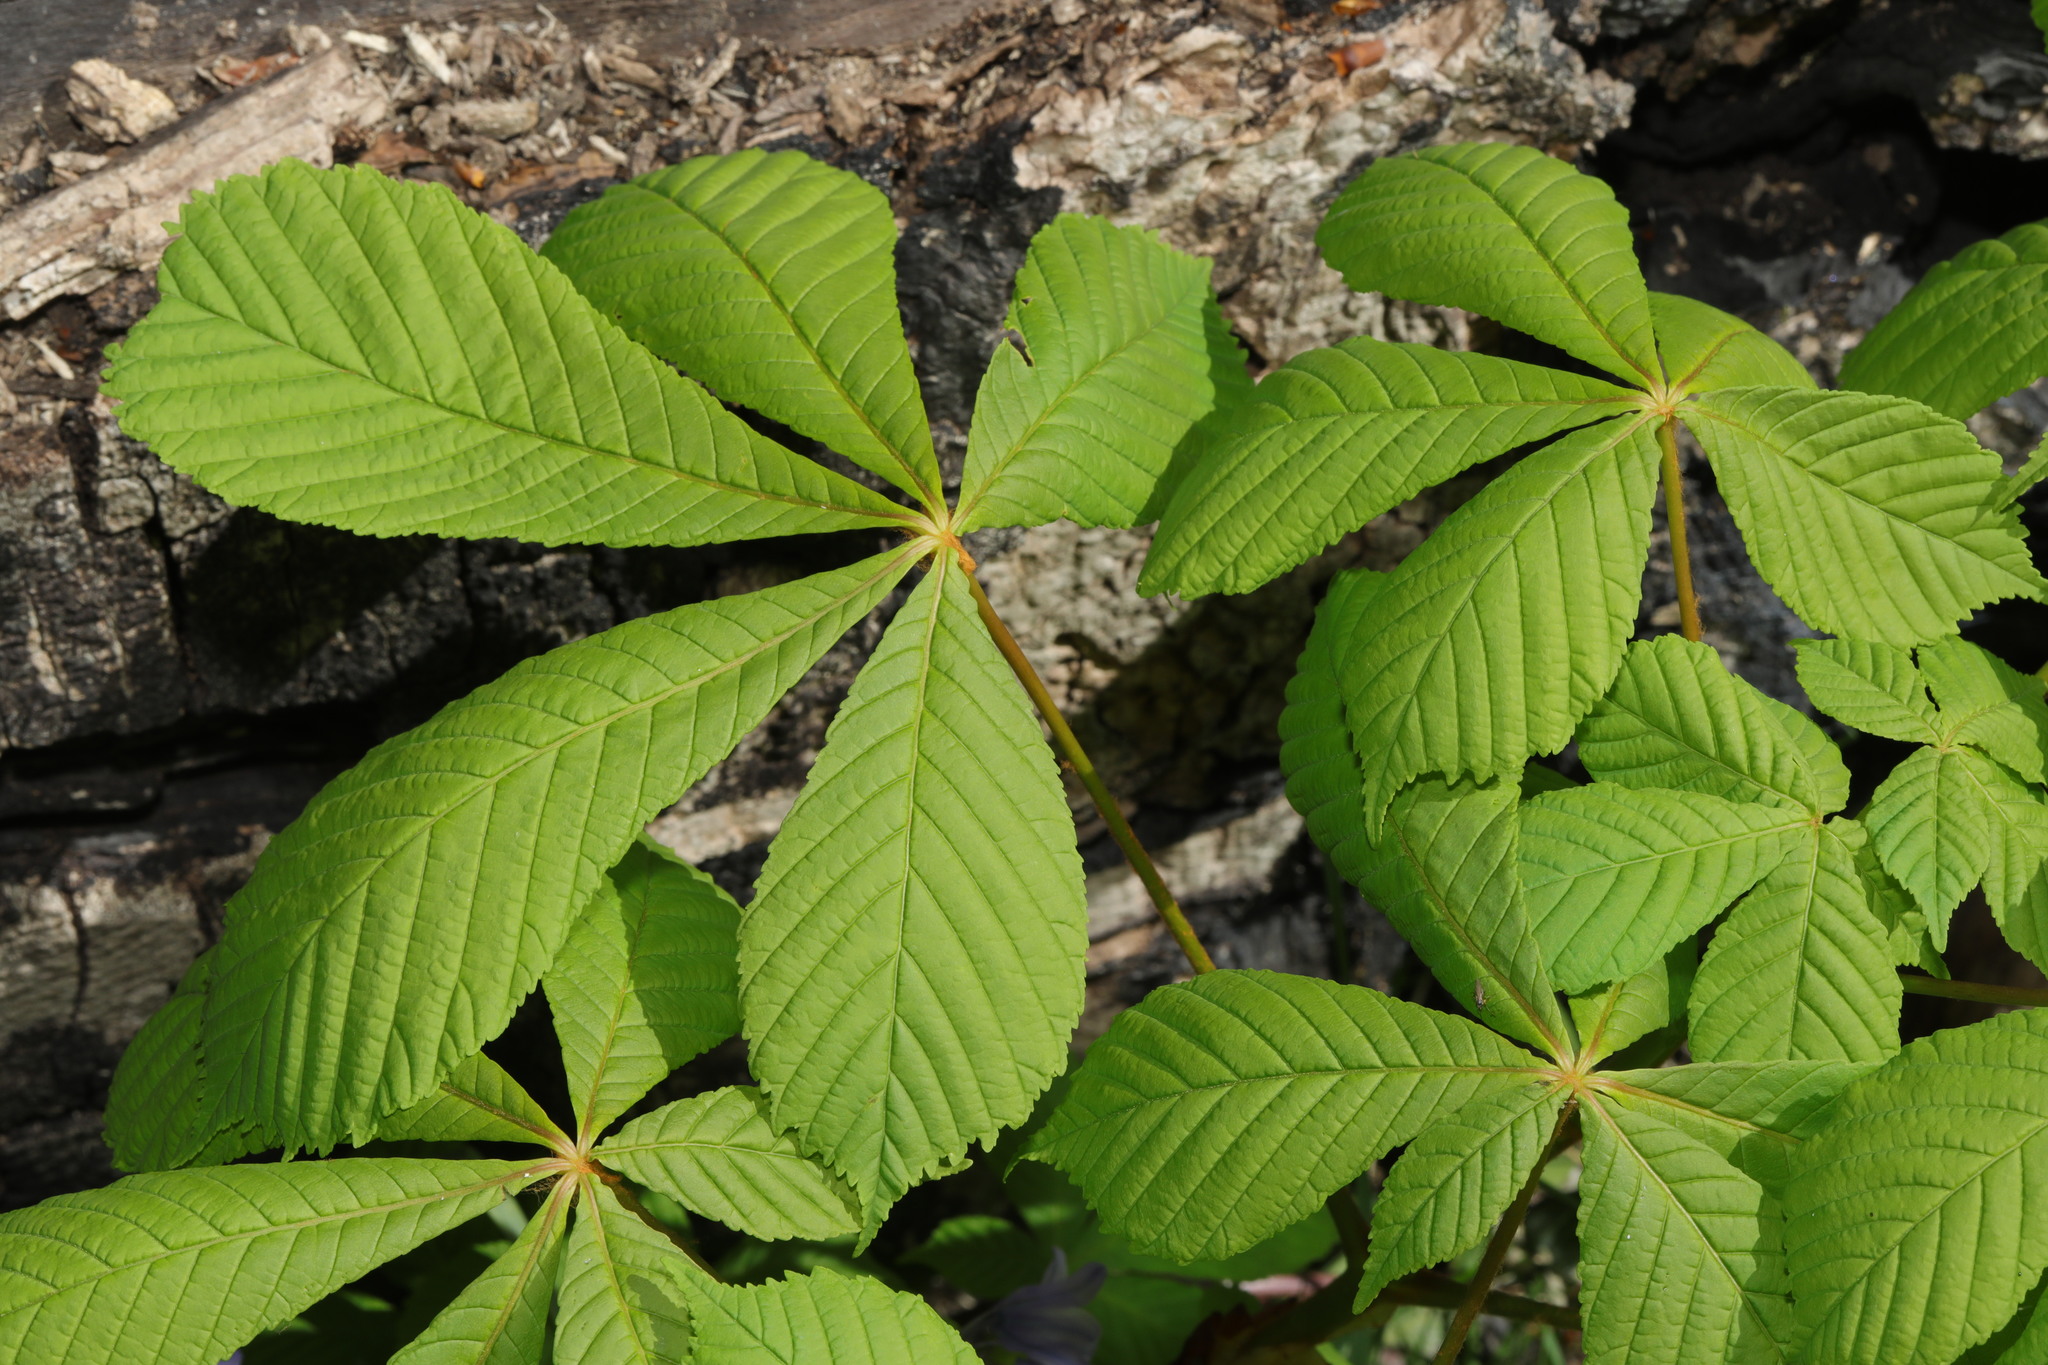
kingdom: Plantae
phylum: Tracheophyta
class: Magnoliopsida
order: Sapindales
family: Sapindaceae
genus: Aesculus
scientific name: Aesculus hippocastanum
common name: Horse-chestnut
